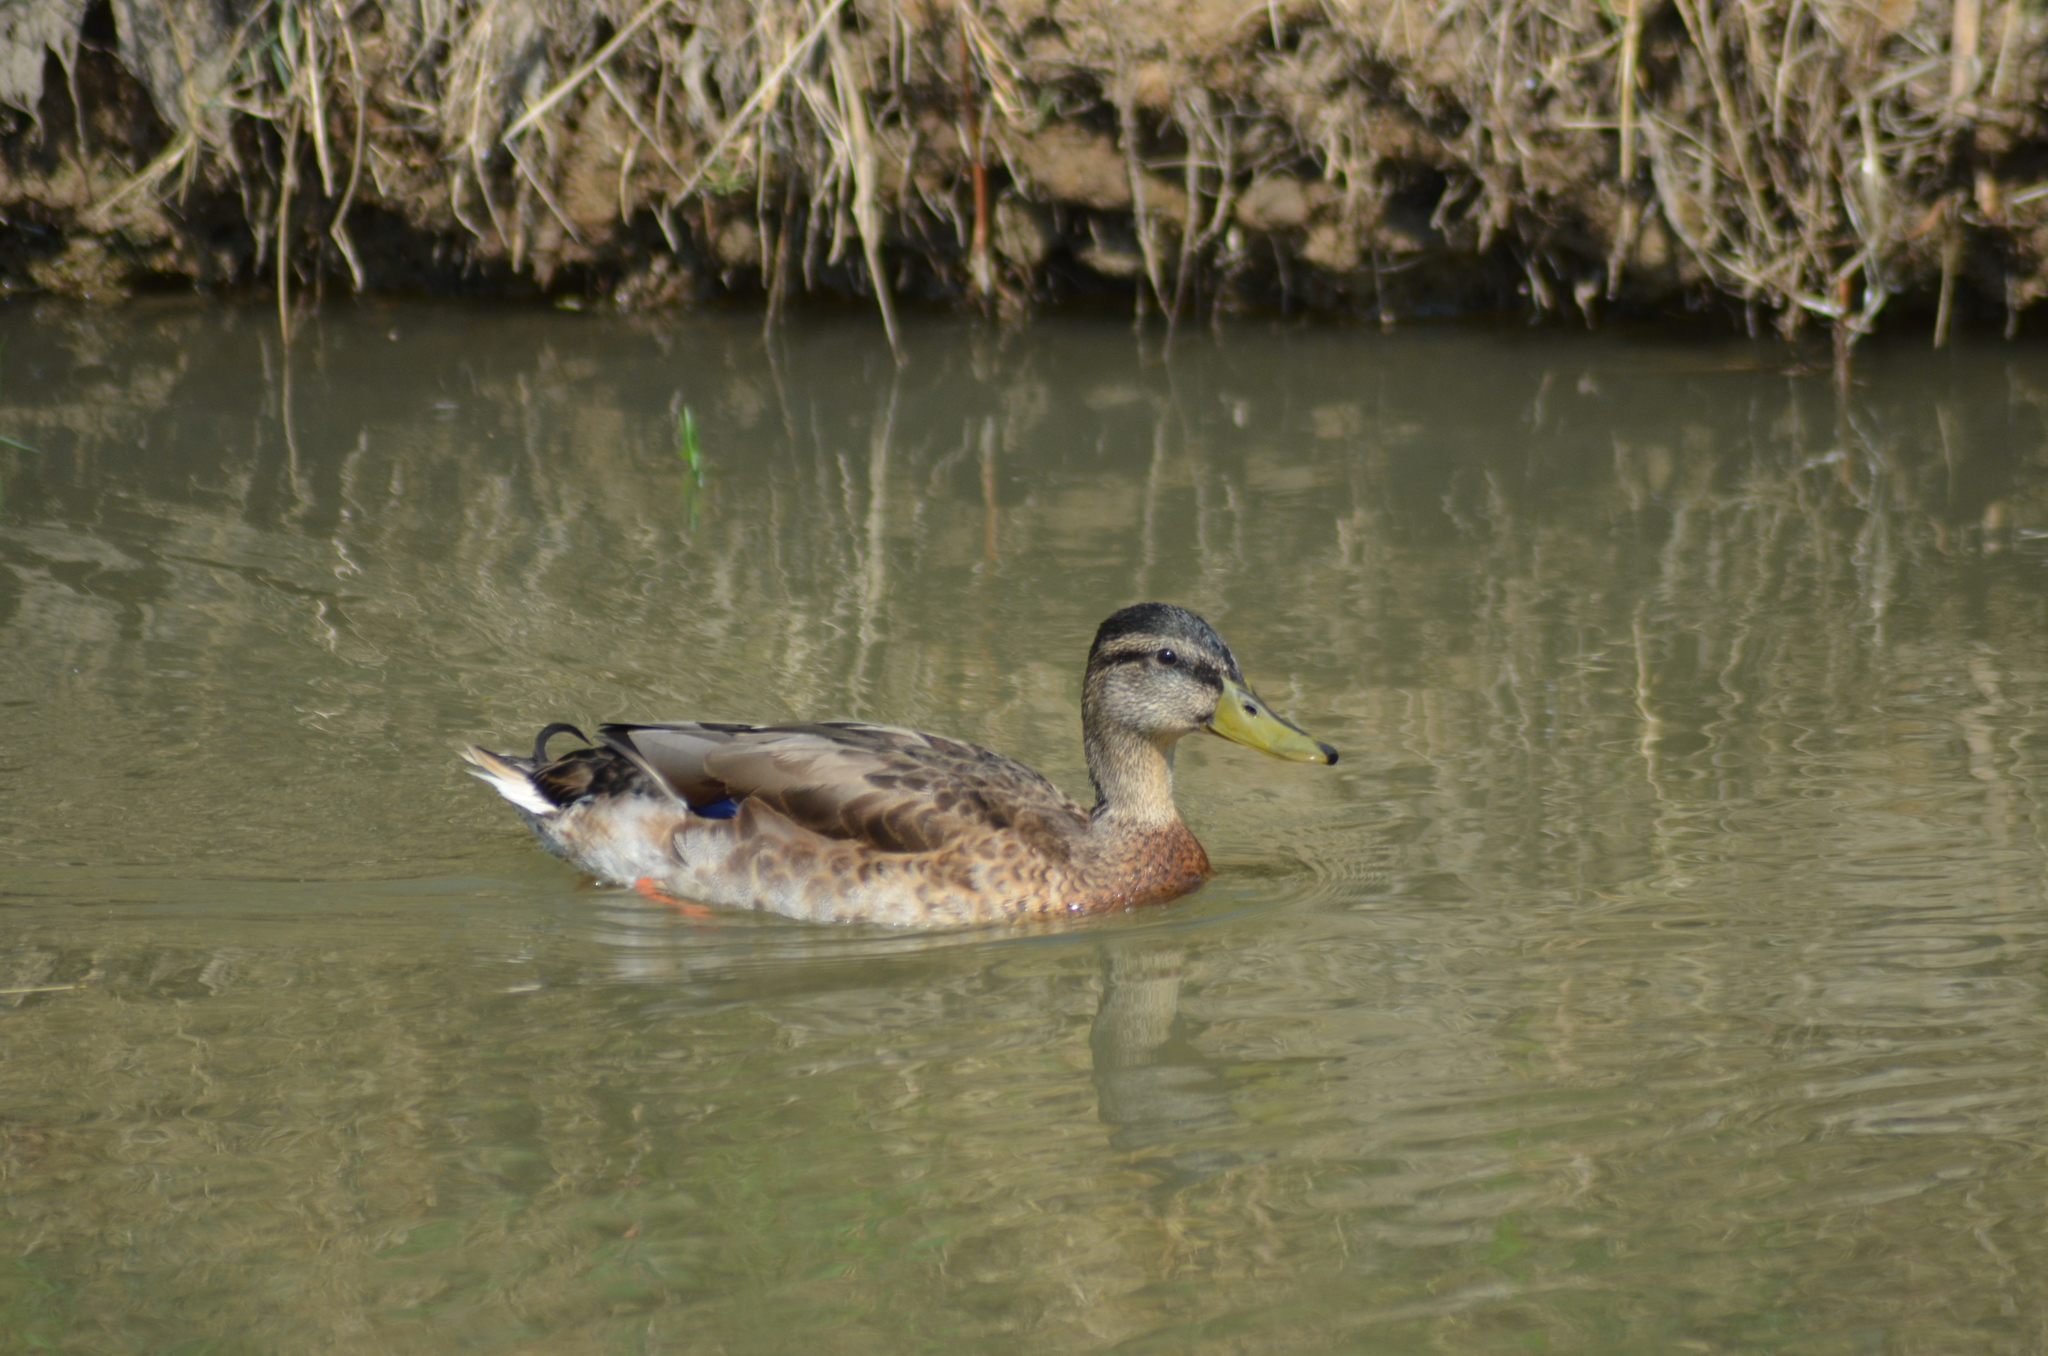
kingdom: Animalia
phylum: Chordata
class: Aves
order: Anseriformes
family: Anatidae
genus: Anas
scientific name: Anas platyrhynchos
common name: Mallard
